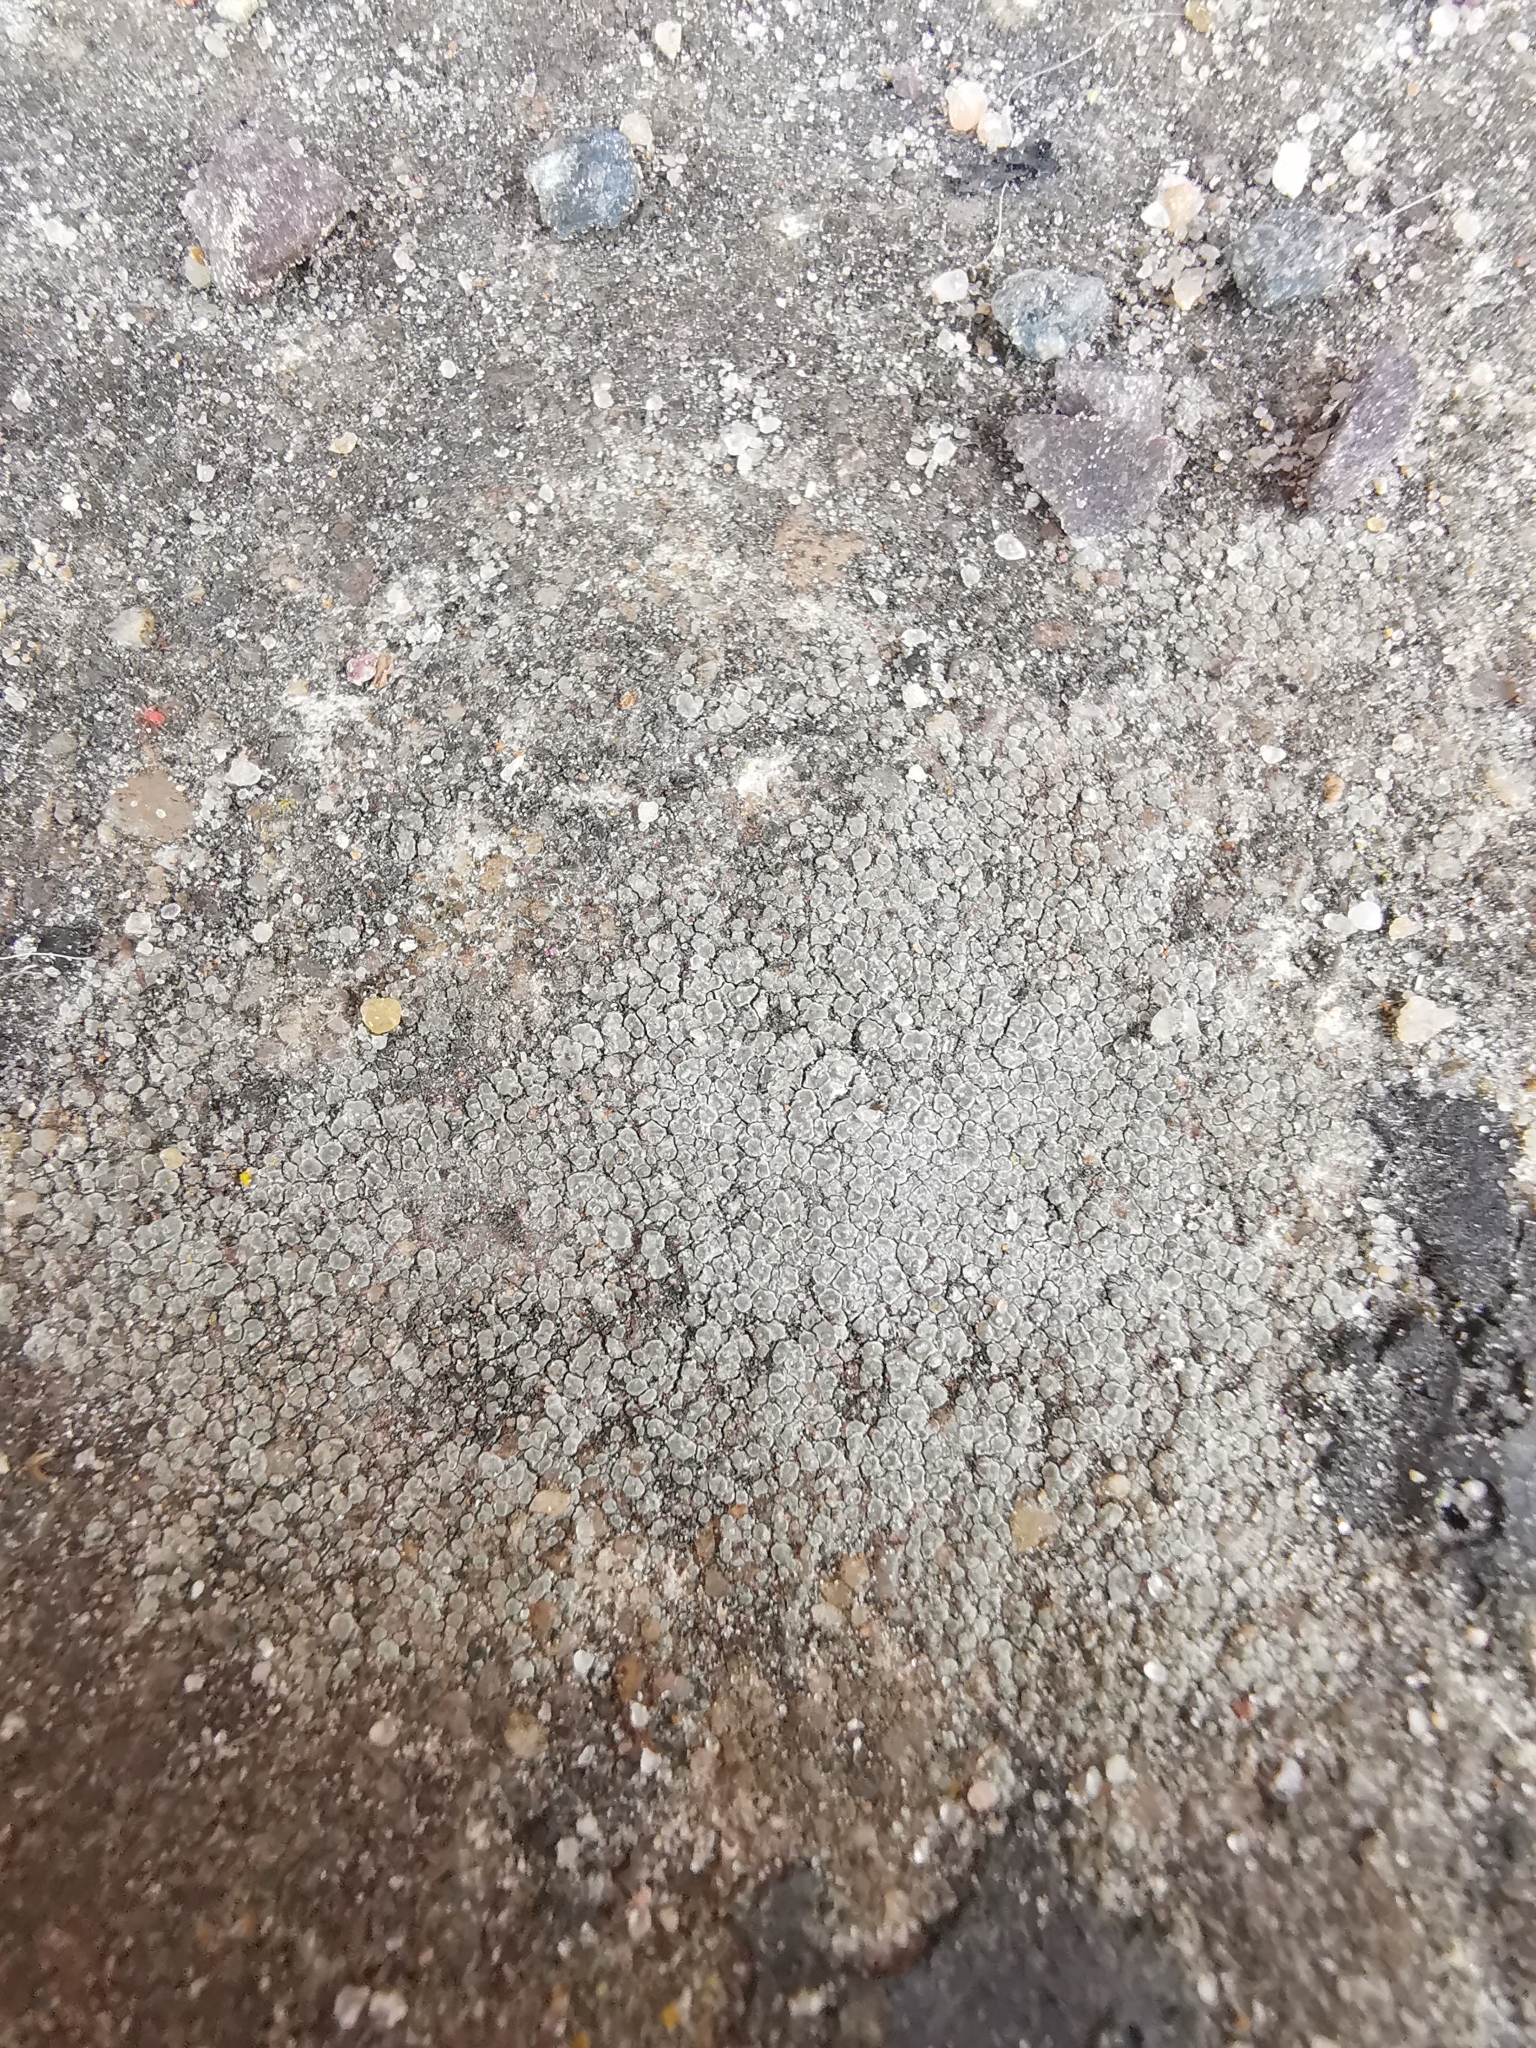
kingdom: Fungi
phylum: Ascomycota
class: Lecanoromycetes
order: Pertusariales
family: Megasporaceae
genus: Circinaria
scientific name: Circinaria contorta
